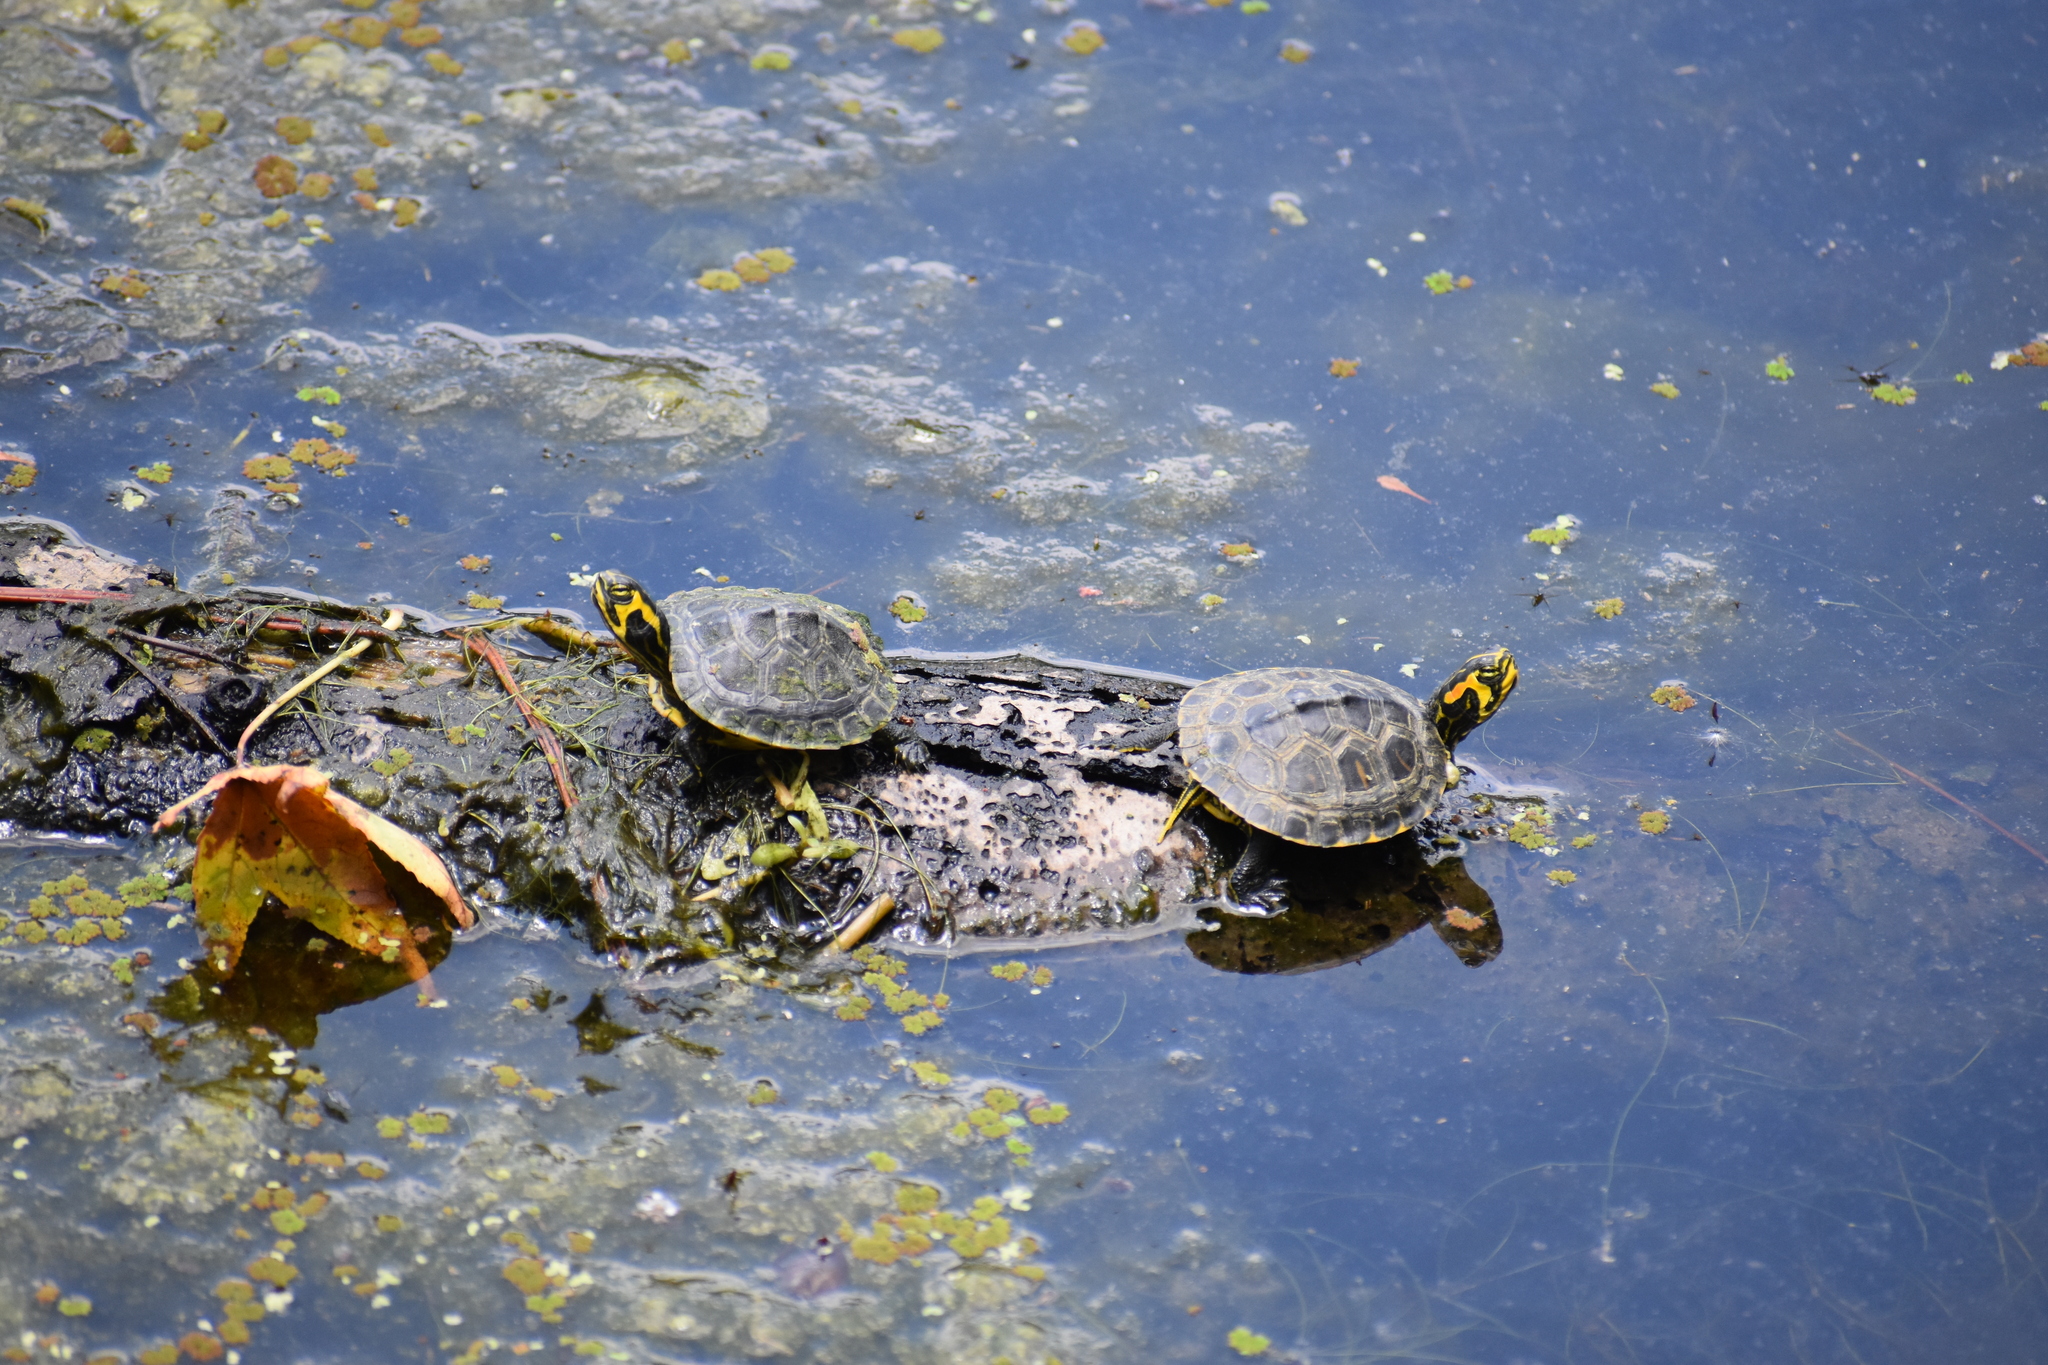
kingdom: Animalia
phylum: Chordata
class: Testudines
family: Emydidae
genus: Trachemys
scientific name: Trachemys scripta
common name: Slider
